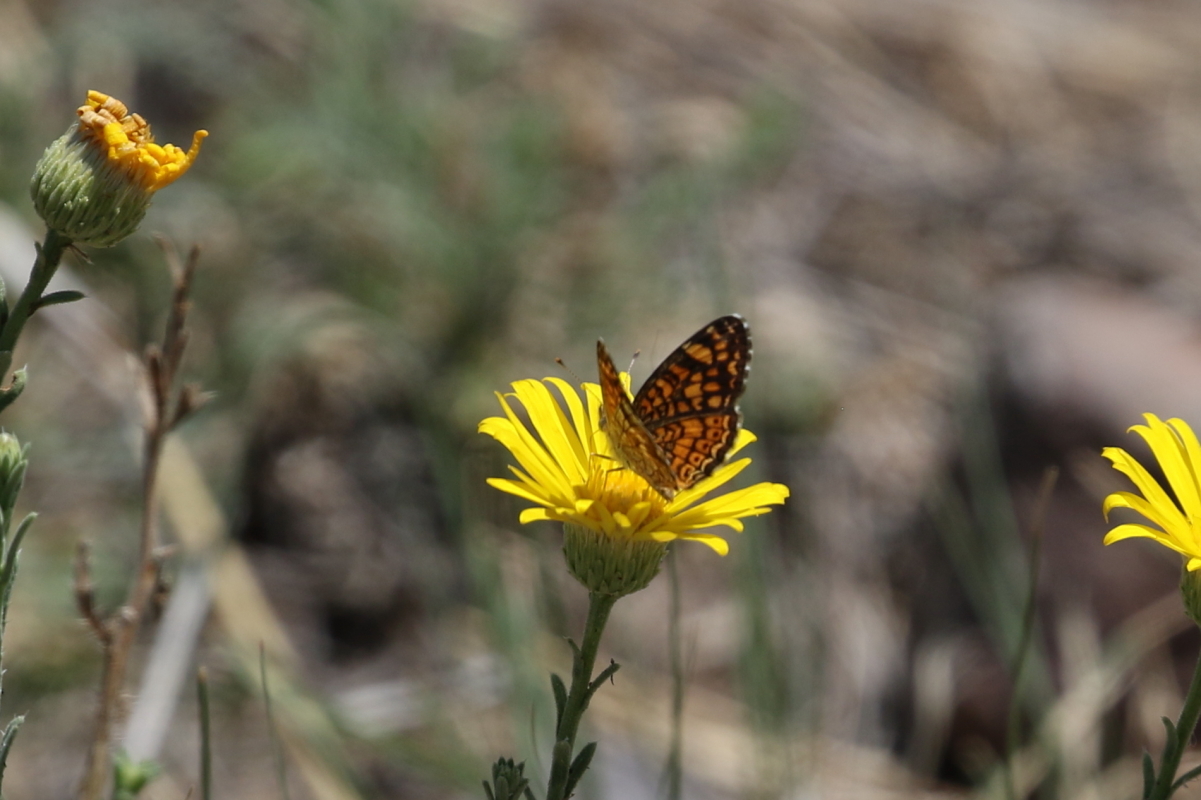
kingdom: Animalia
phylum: Arthropoda
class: Insecta
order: Lepidoptera
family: Nymphalidae
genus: Phyciodes
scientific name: Phyciodes vesta
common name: Vesta crescent
